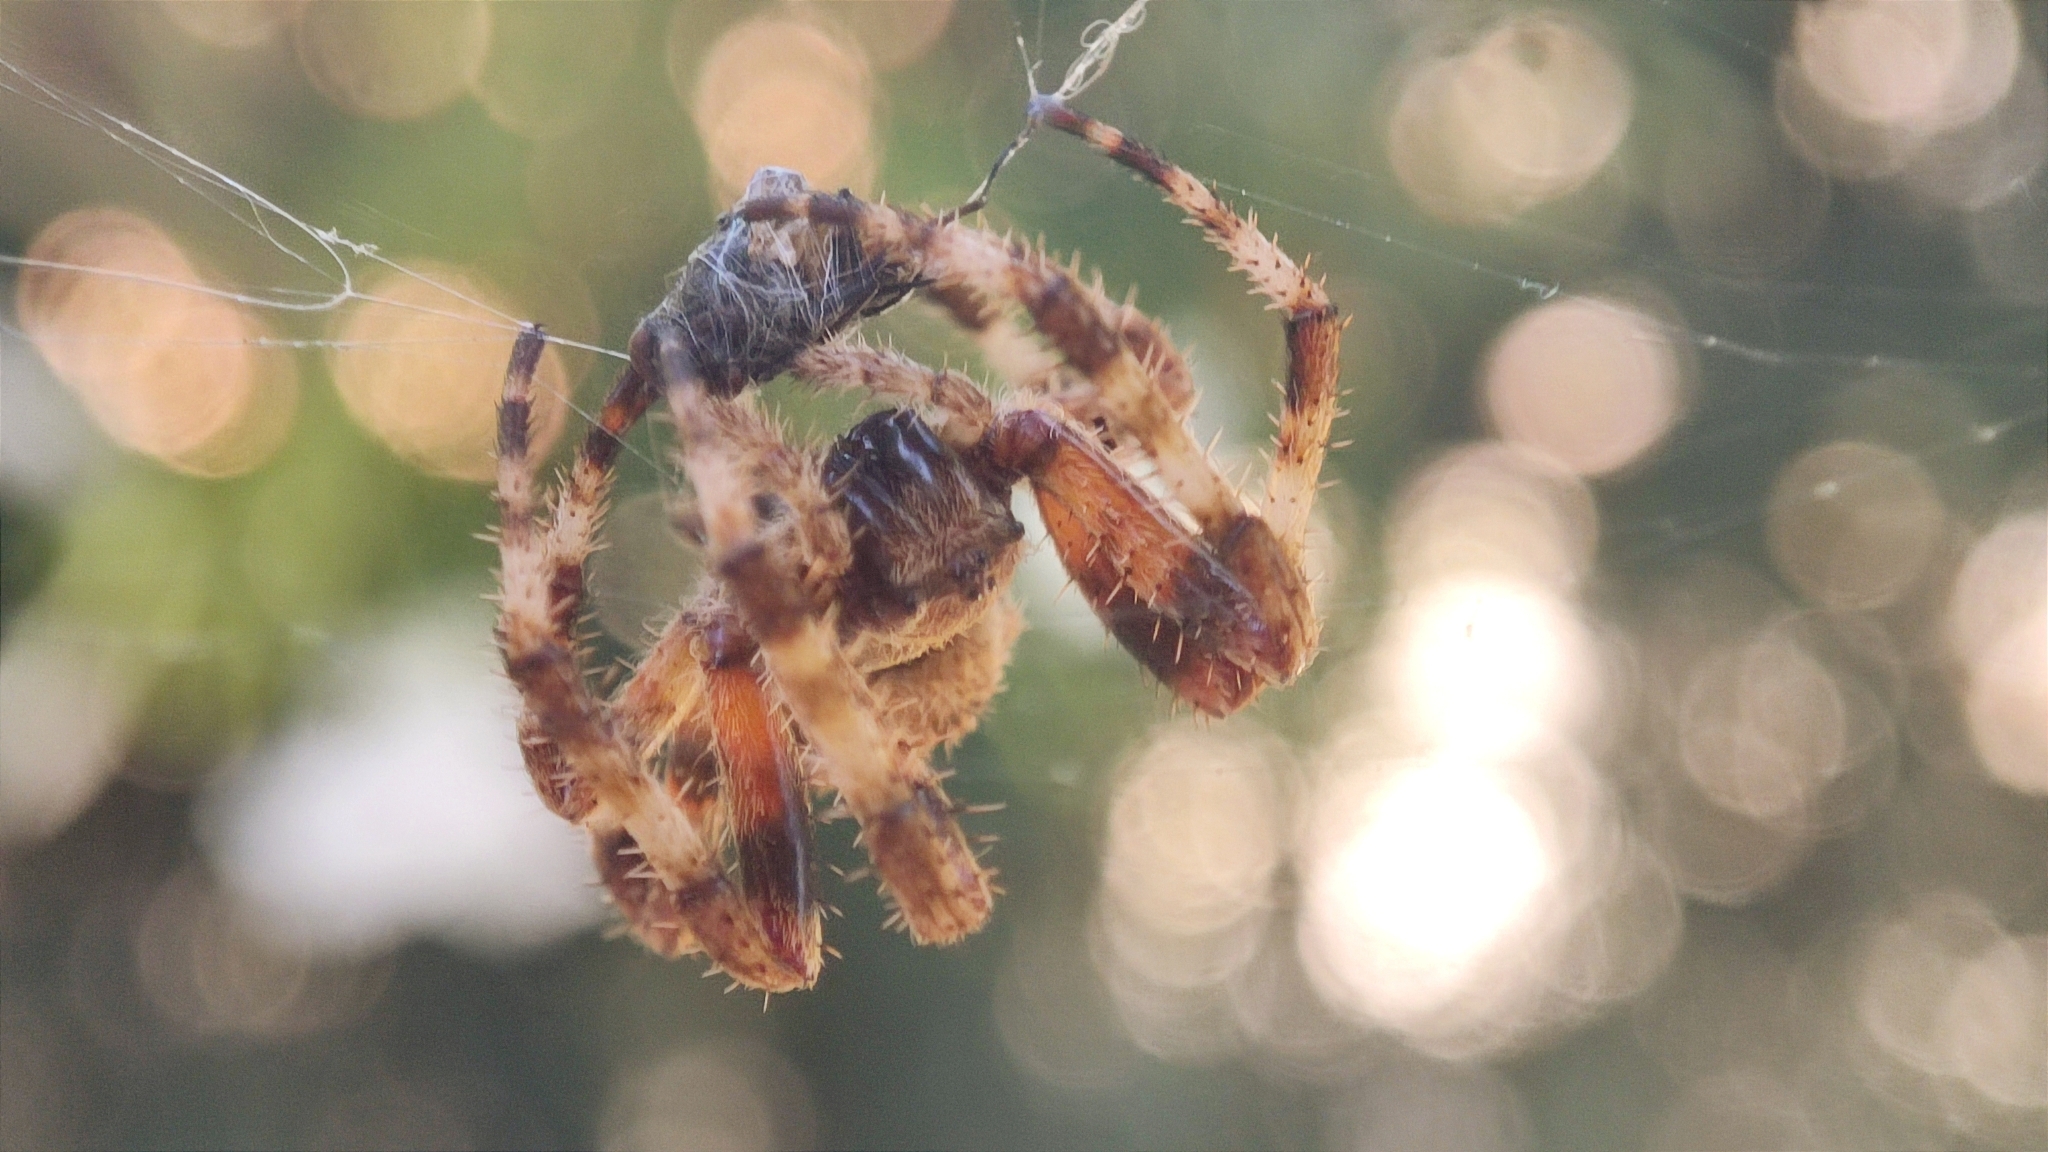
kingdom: Animalia
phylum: Arthropoda
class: Arachnida
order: Araneae
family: Araneidae
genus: Araneus
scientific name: Araneus angulatus
